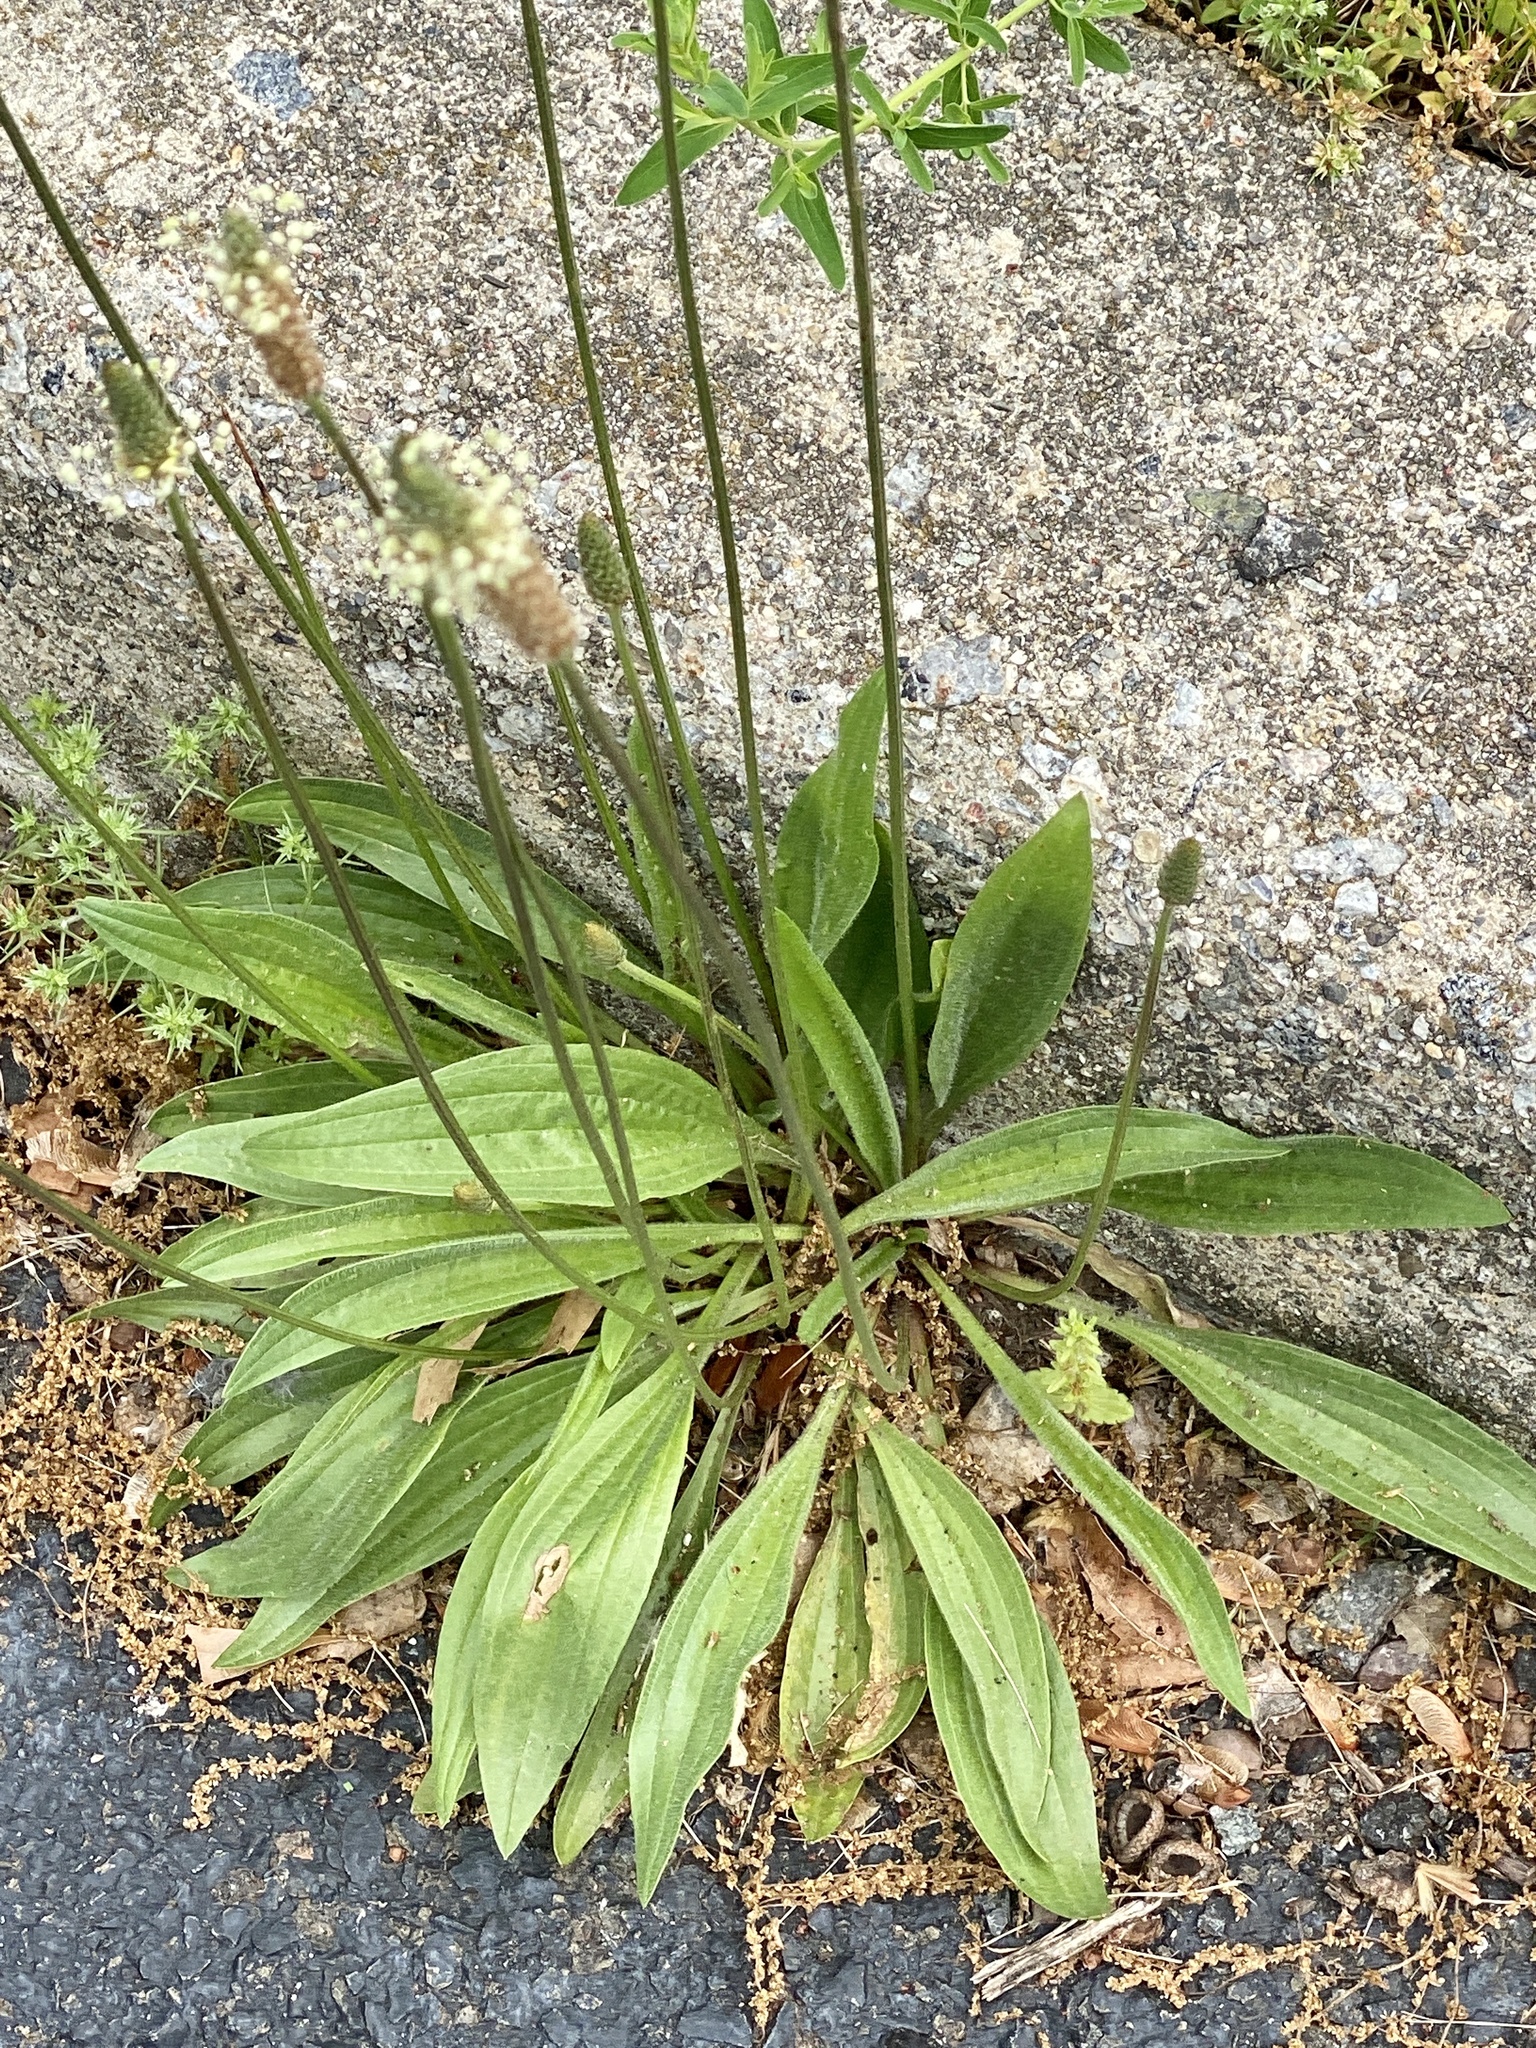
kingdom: Plantae
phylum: Tracheophyta
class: Magnoliopsida
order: Lamiales
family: Plantaginaceae
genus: Plantago
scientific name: Plantago lanceolata
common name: Ribwort plantain
